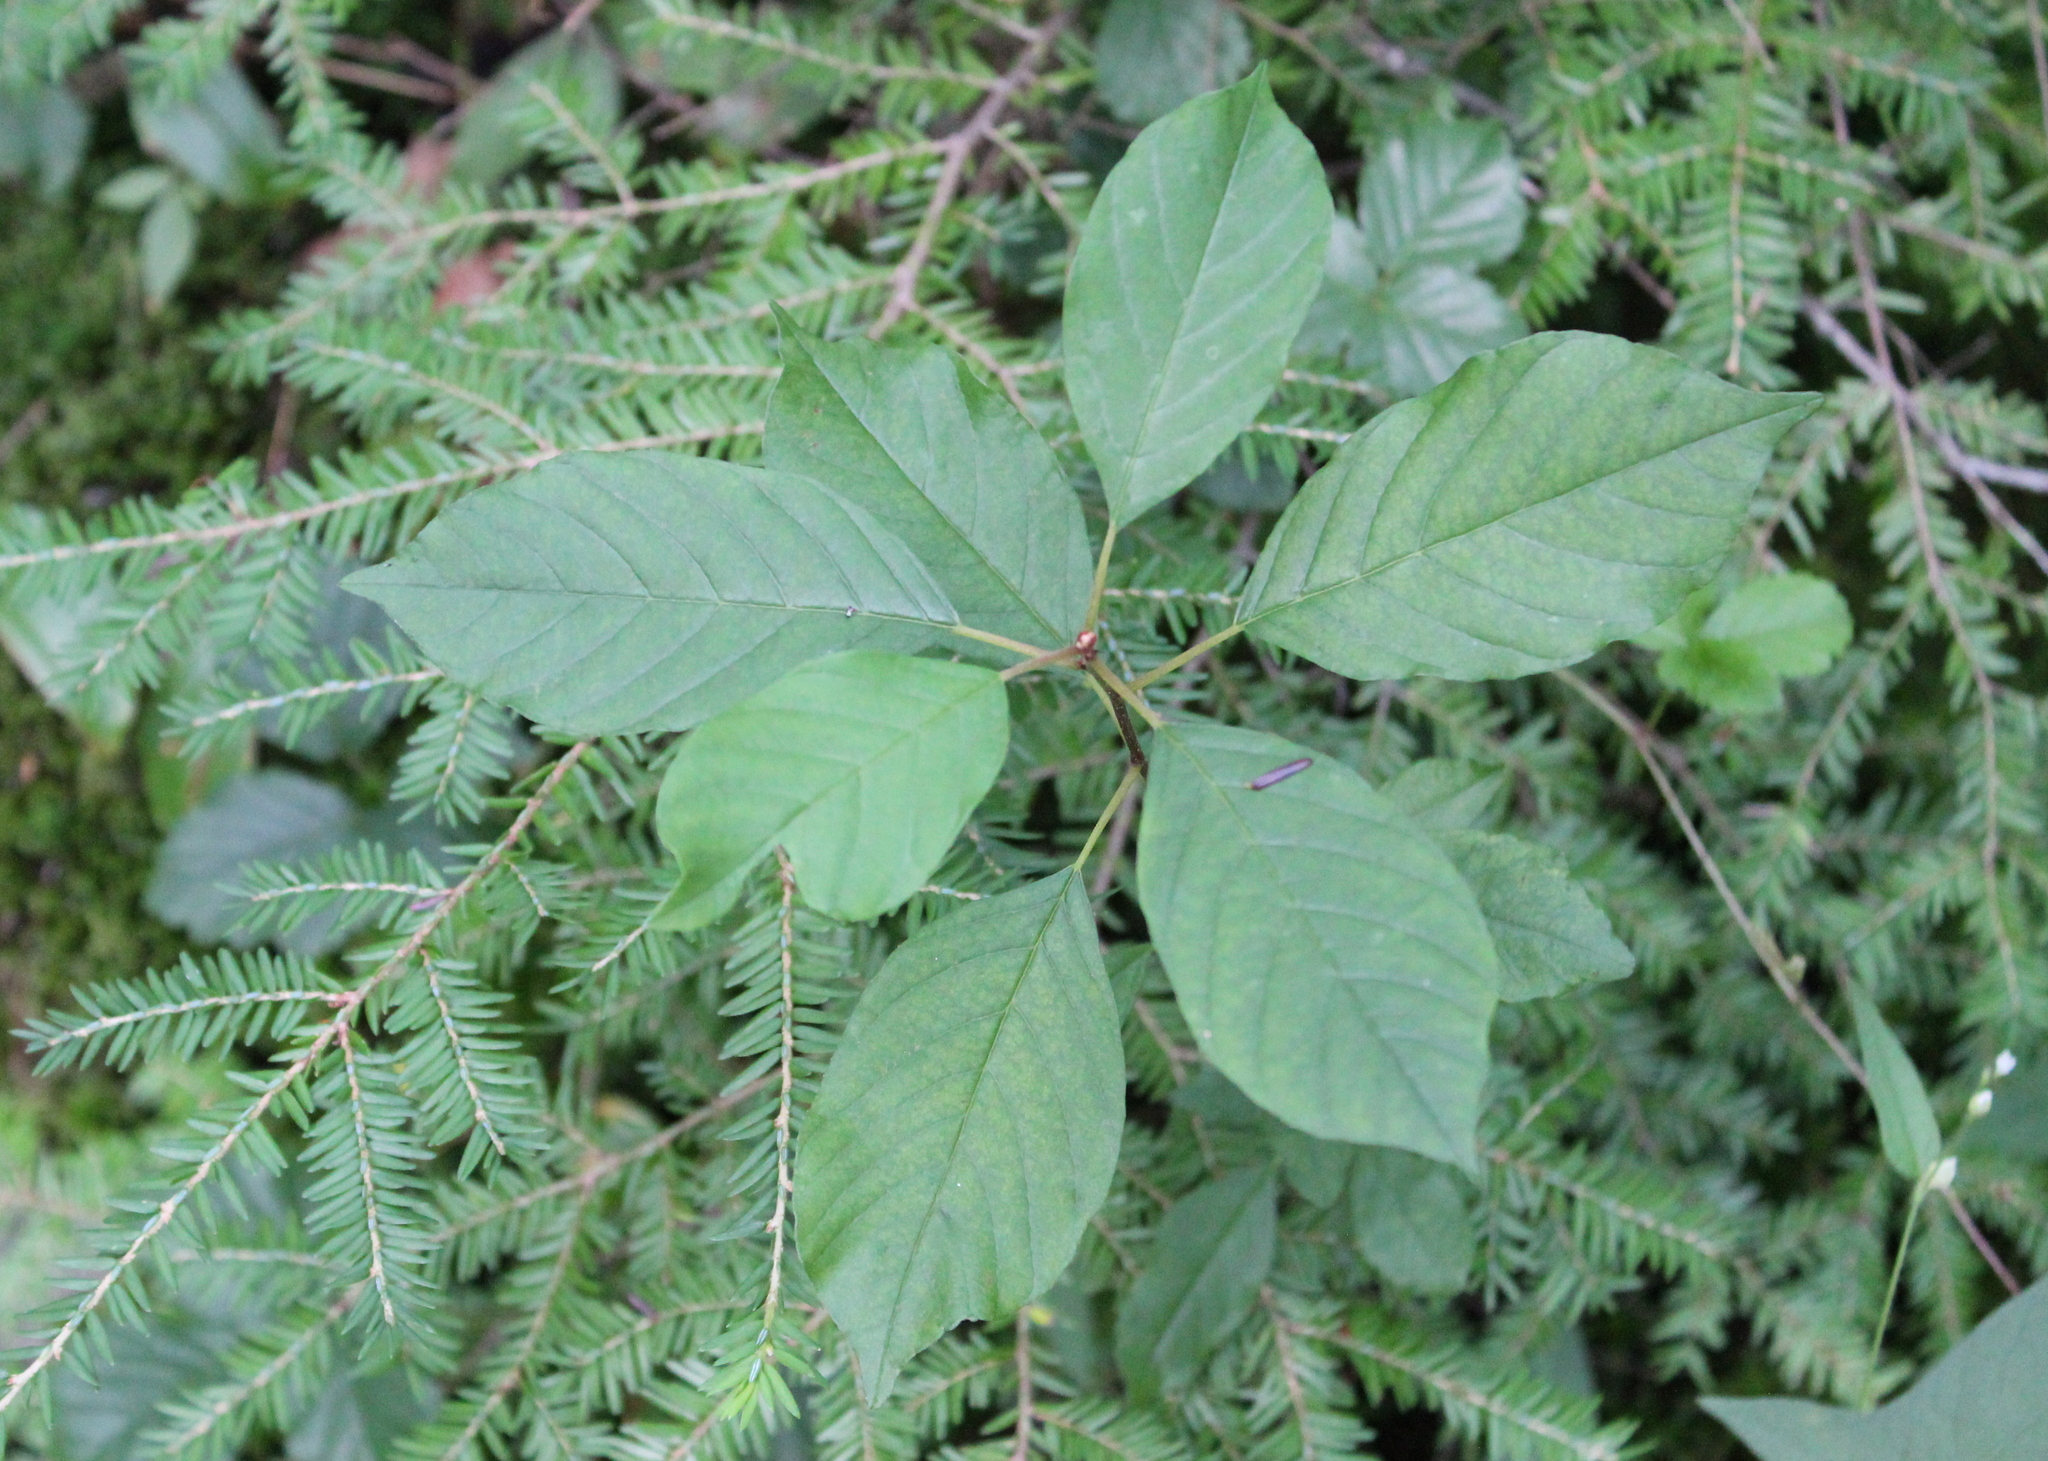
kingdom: Plantae
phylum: Tracheophyta
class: Magnoliopsida
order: Rosales
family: Rhamnaceae
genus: Frangula
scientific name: Frangula alnus
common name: Alder buckthorn
